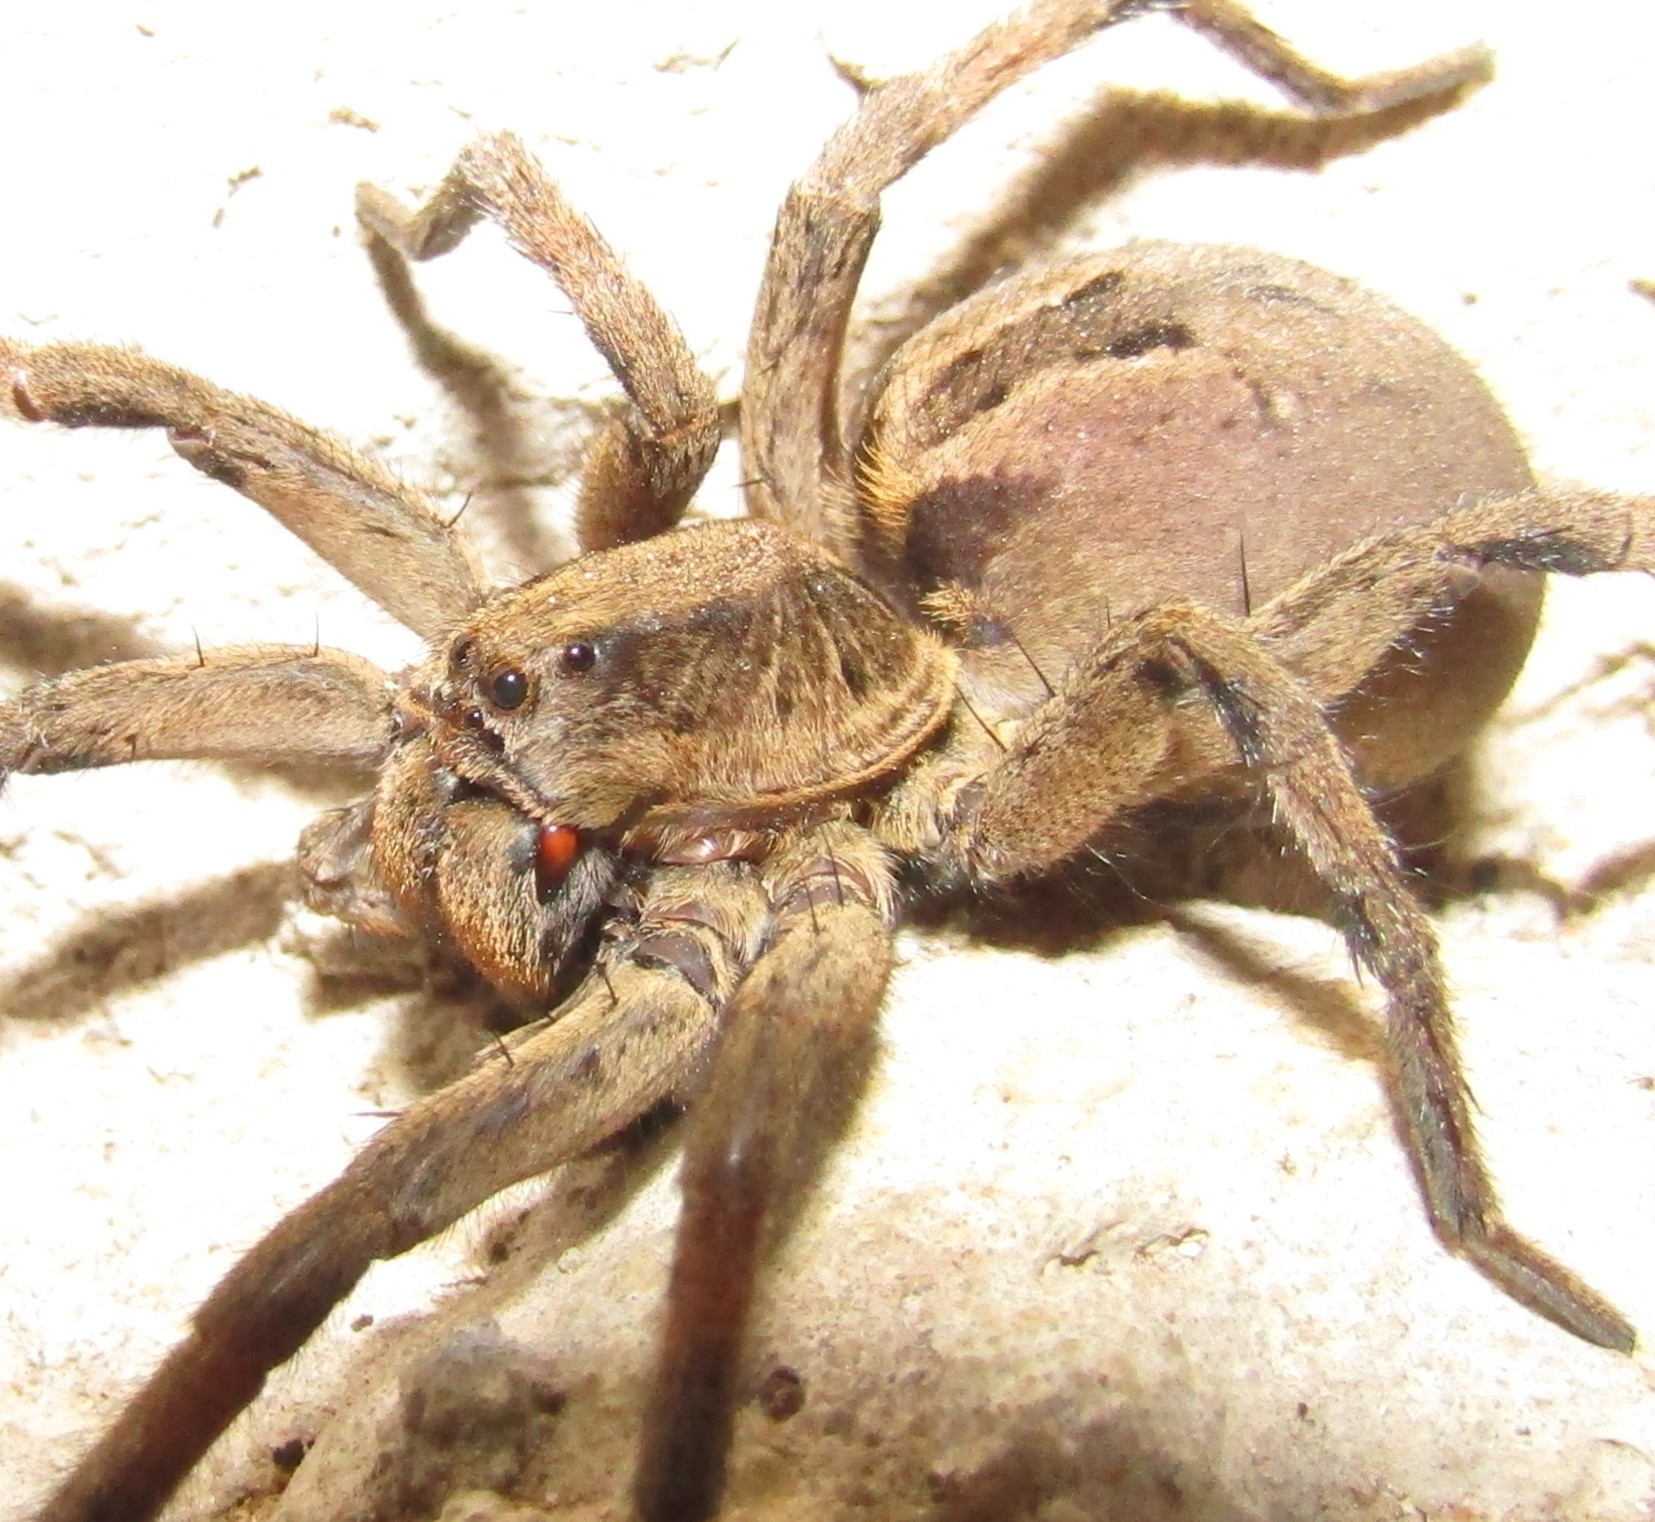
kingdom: Animalia
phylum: Arthropoda
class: Arachnida
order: Araneae
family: Lycosidae
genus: Lycosa
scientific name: Lycosa erythrognatha
